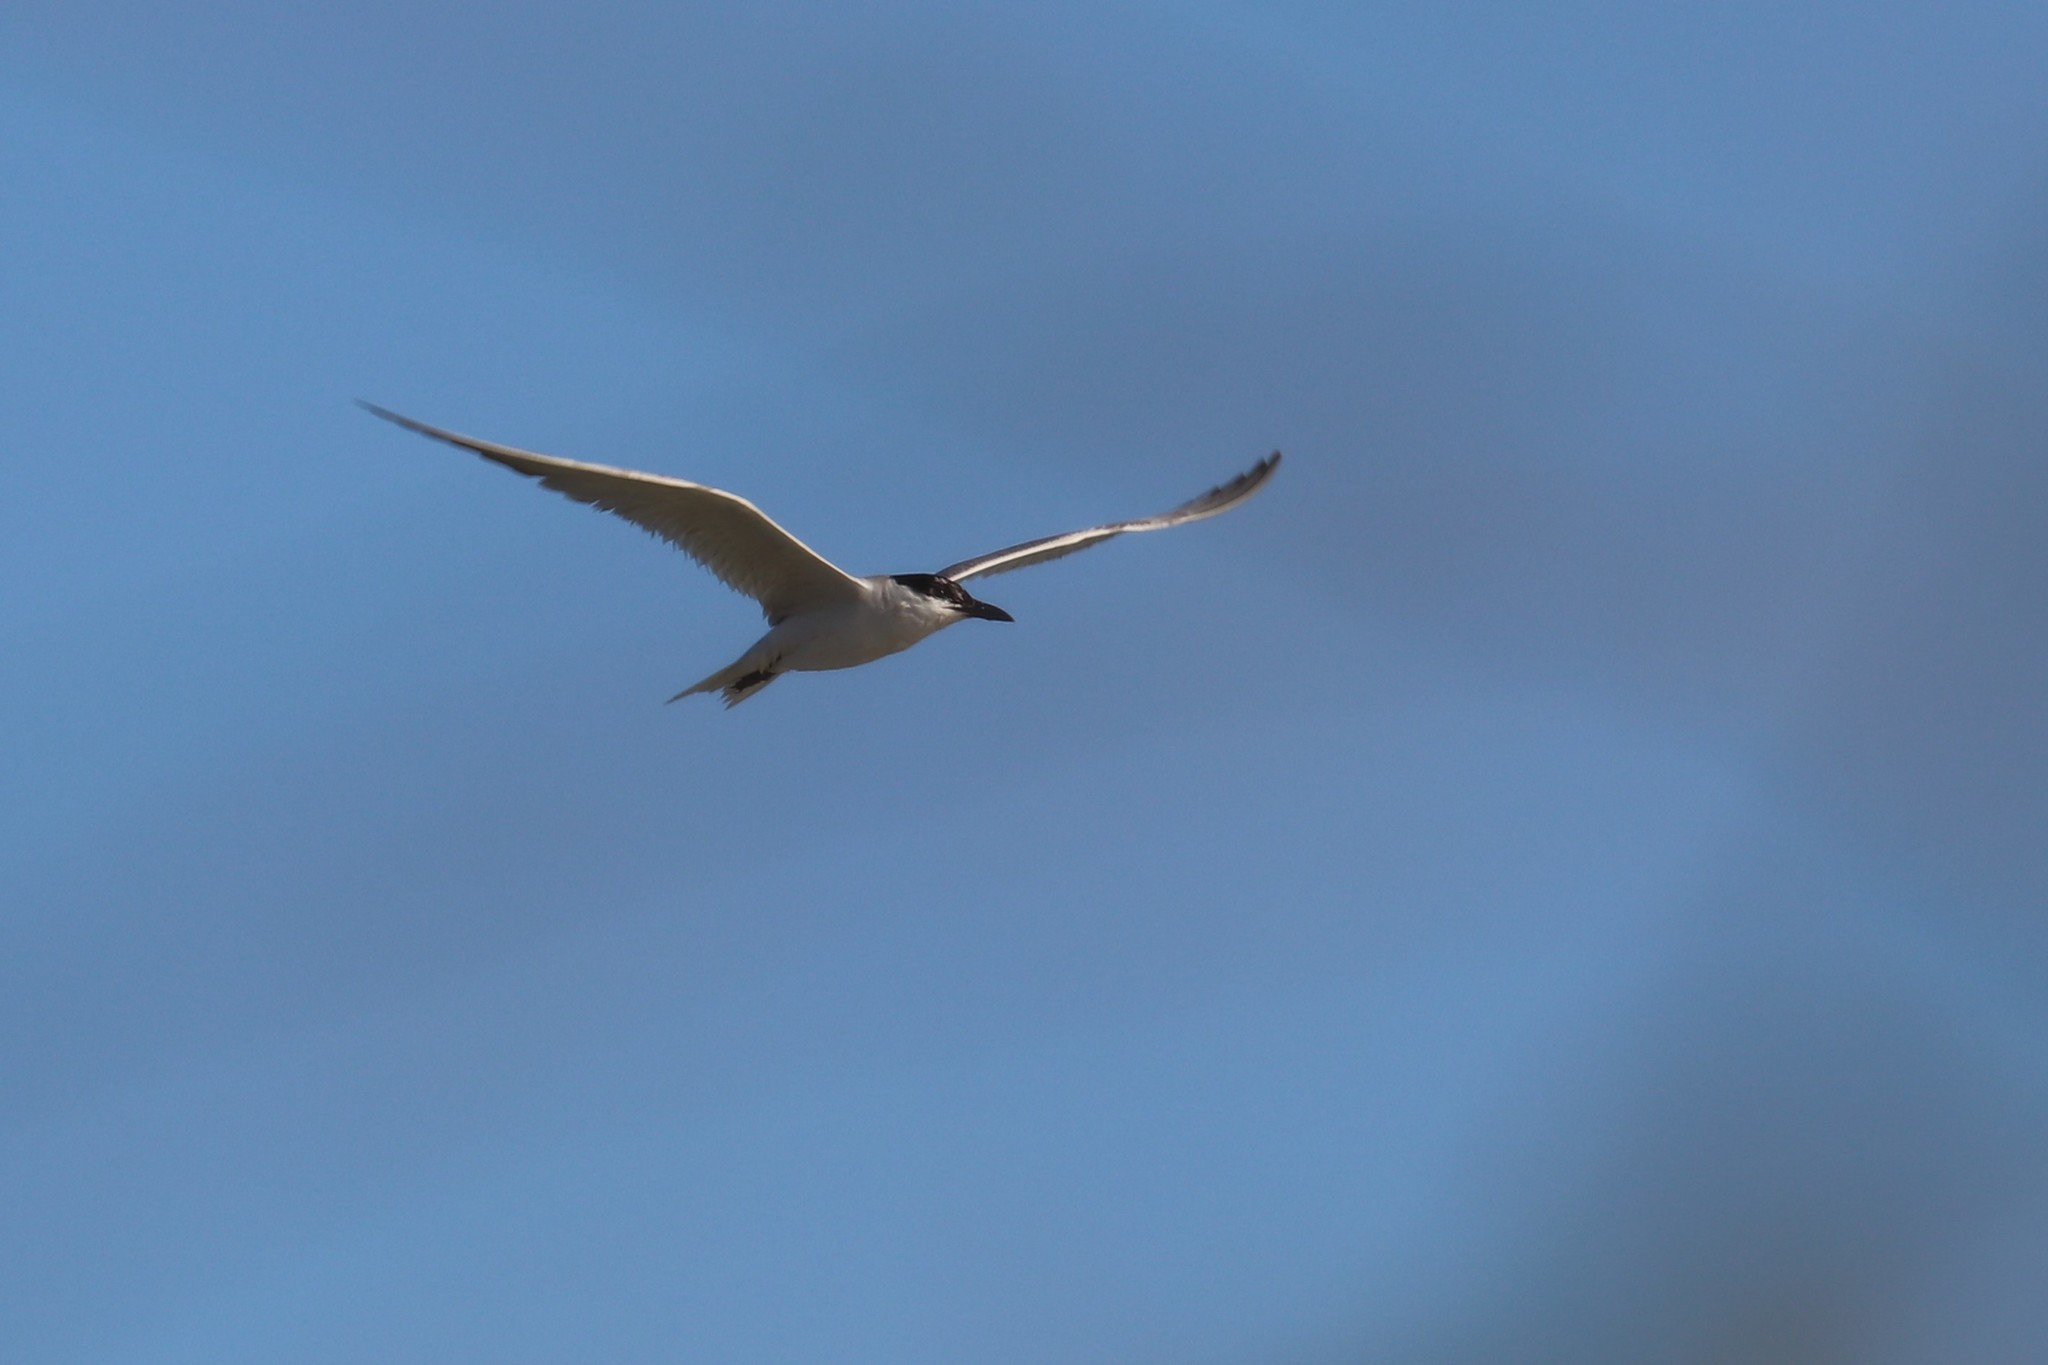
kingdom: Animalia
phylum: Chordata
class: Aves
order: Charadriiformes
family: Laridae
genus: Gelochelidon
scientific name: Gelochelidon nilotica
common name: Gull-billed tern
